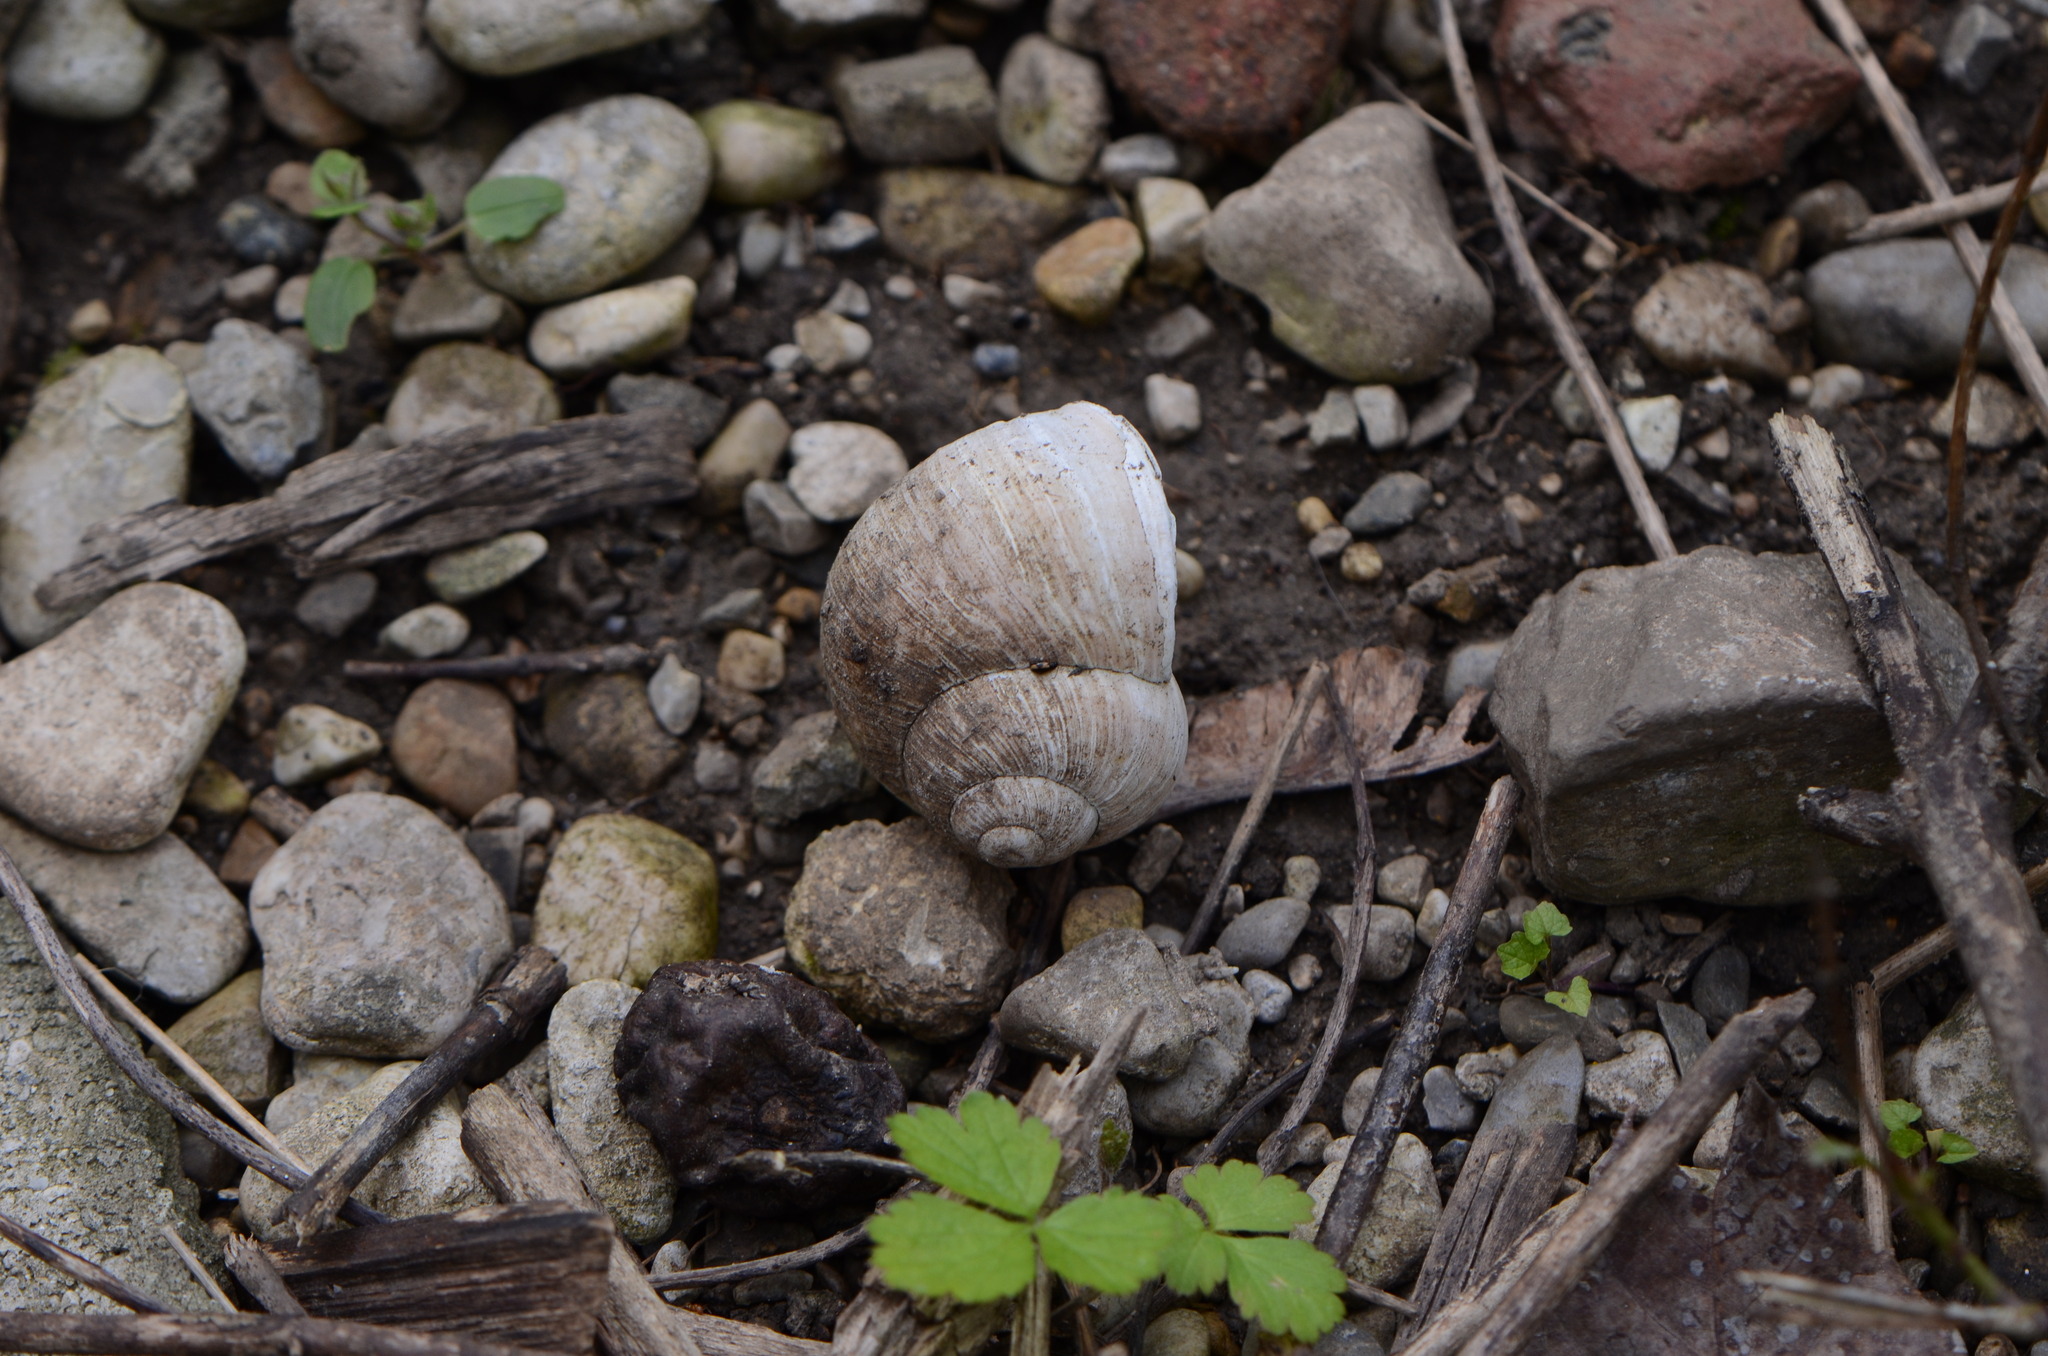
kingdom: Animalia
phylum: Mollusca
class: Gastropoda
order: Stylommatophora
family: Helicidae
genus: Helix
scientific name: Helix pomatia
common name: Roman snail
